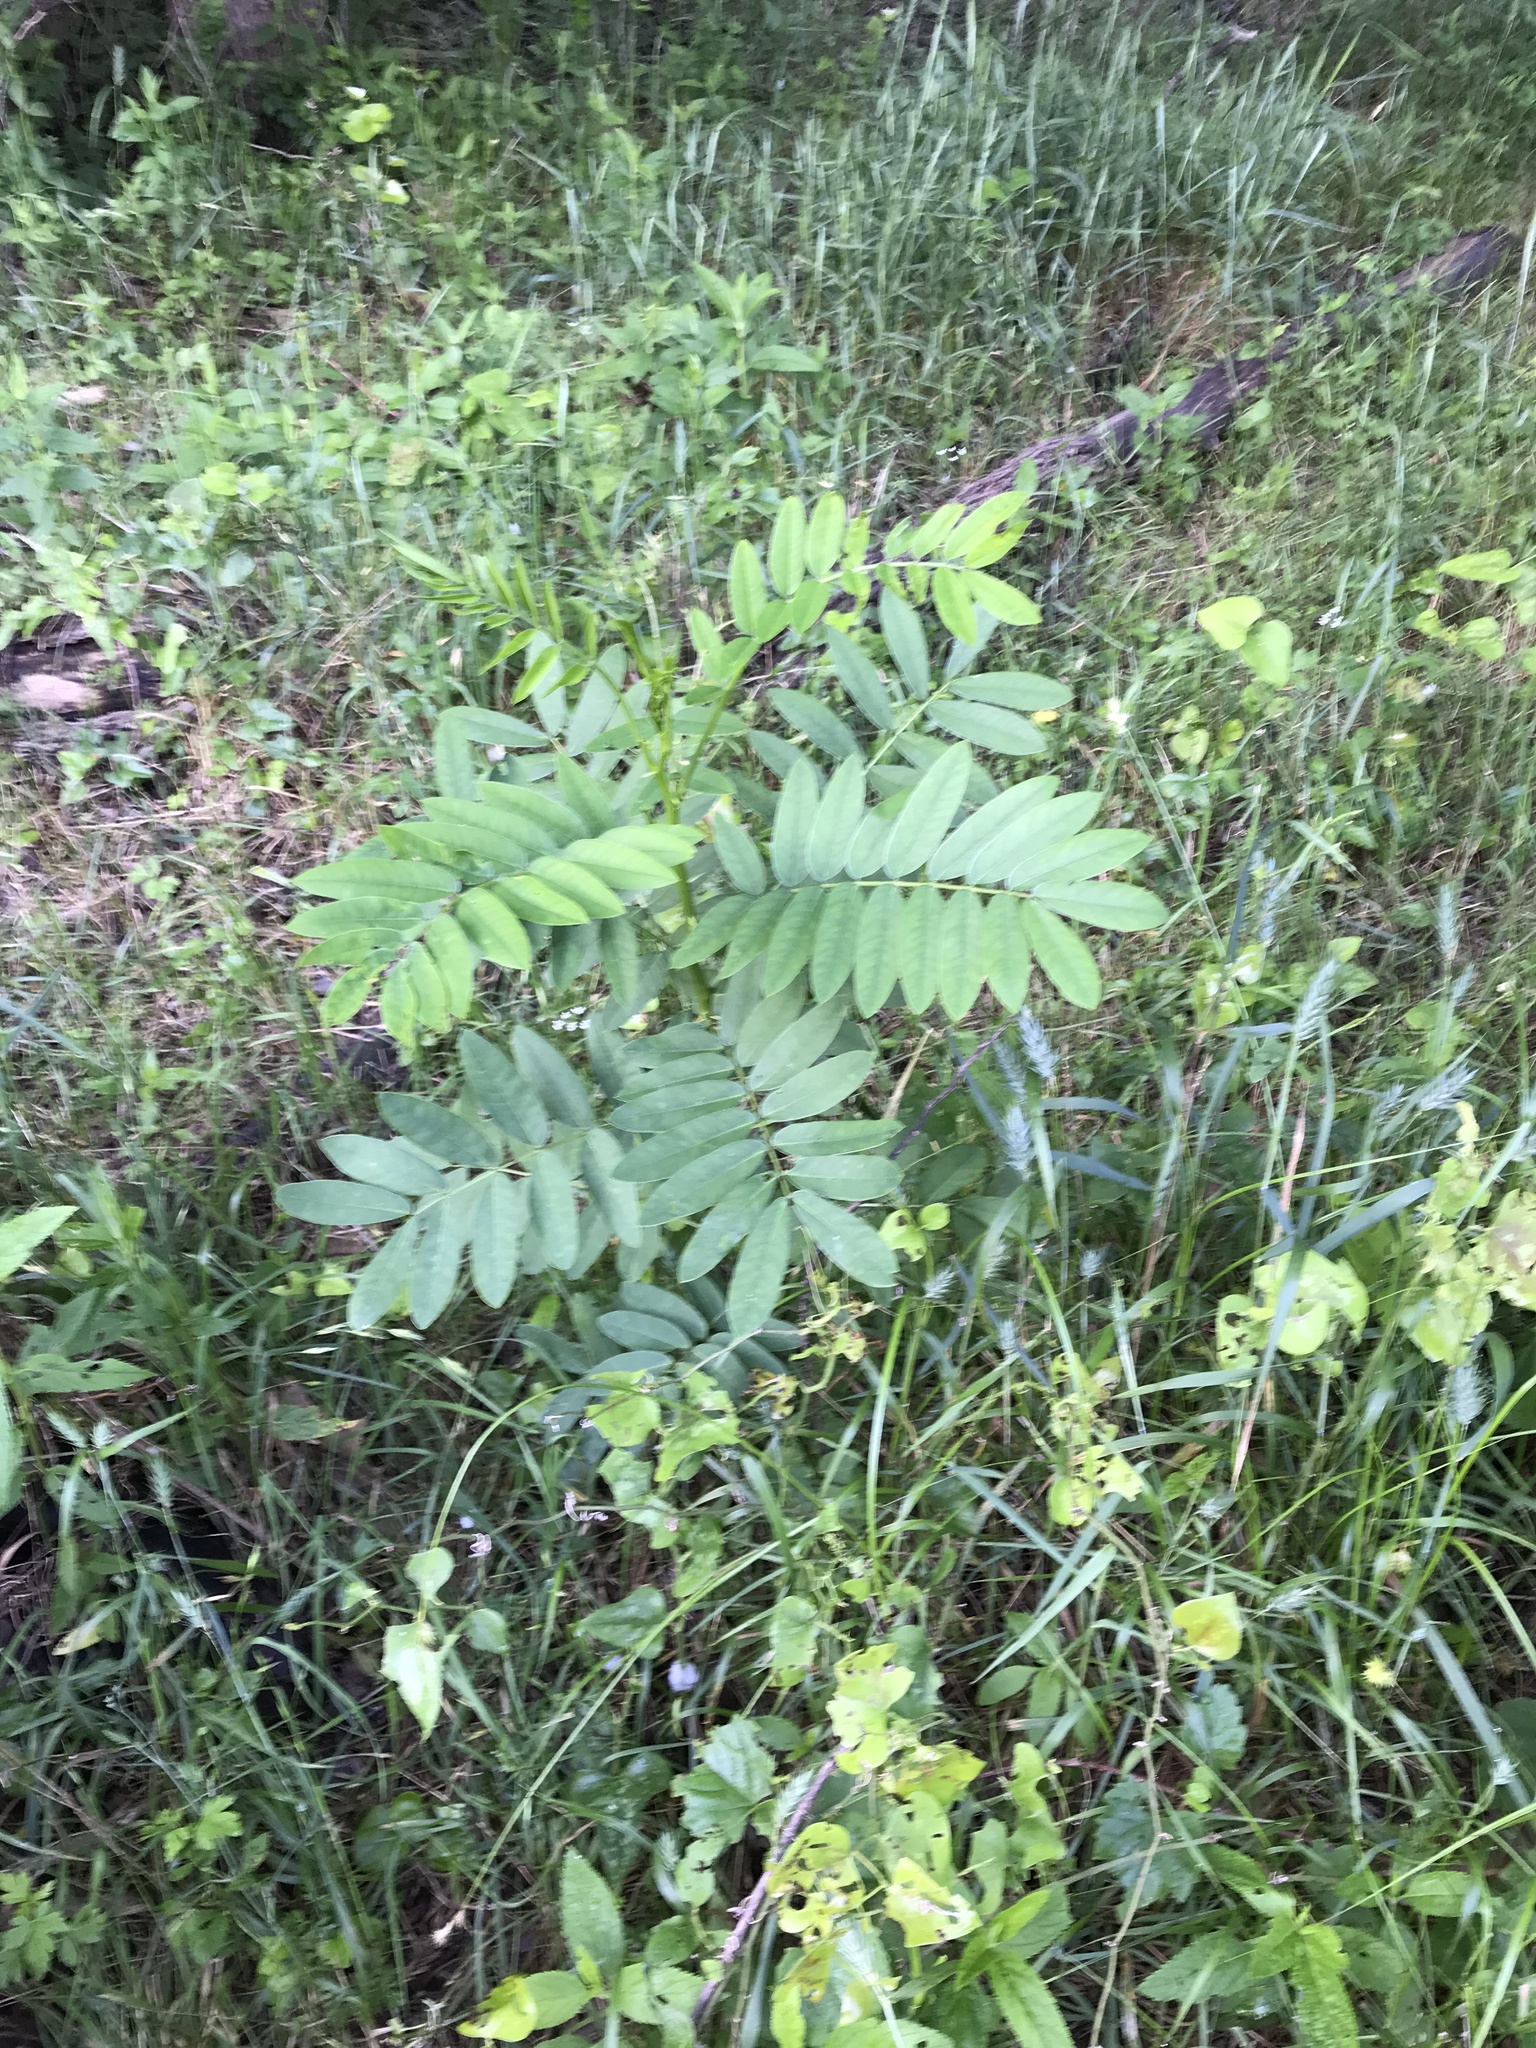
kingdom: Plantae
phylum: Tracheophyta
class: Magnoliopsida
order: Fabales
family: Fabaceae
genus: Senna
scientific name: Senna marilandica
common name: American senna
